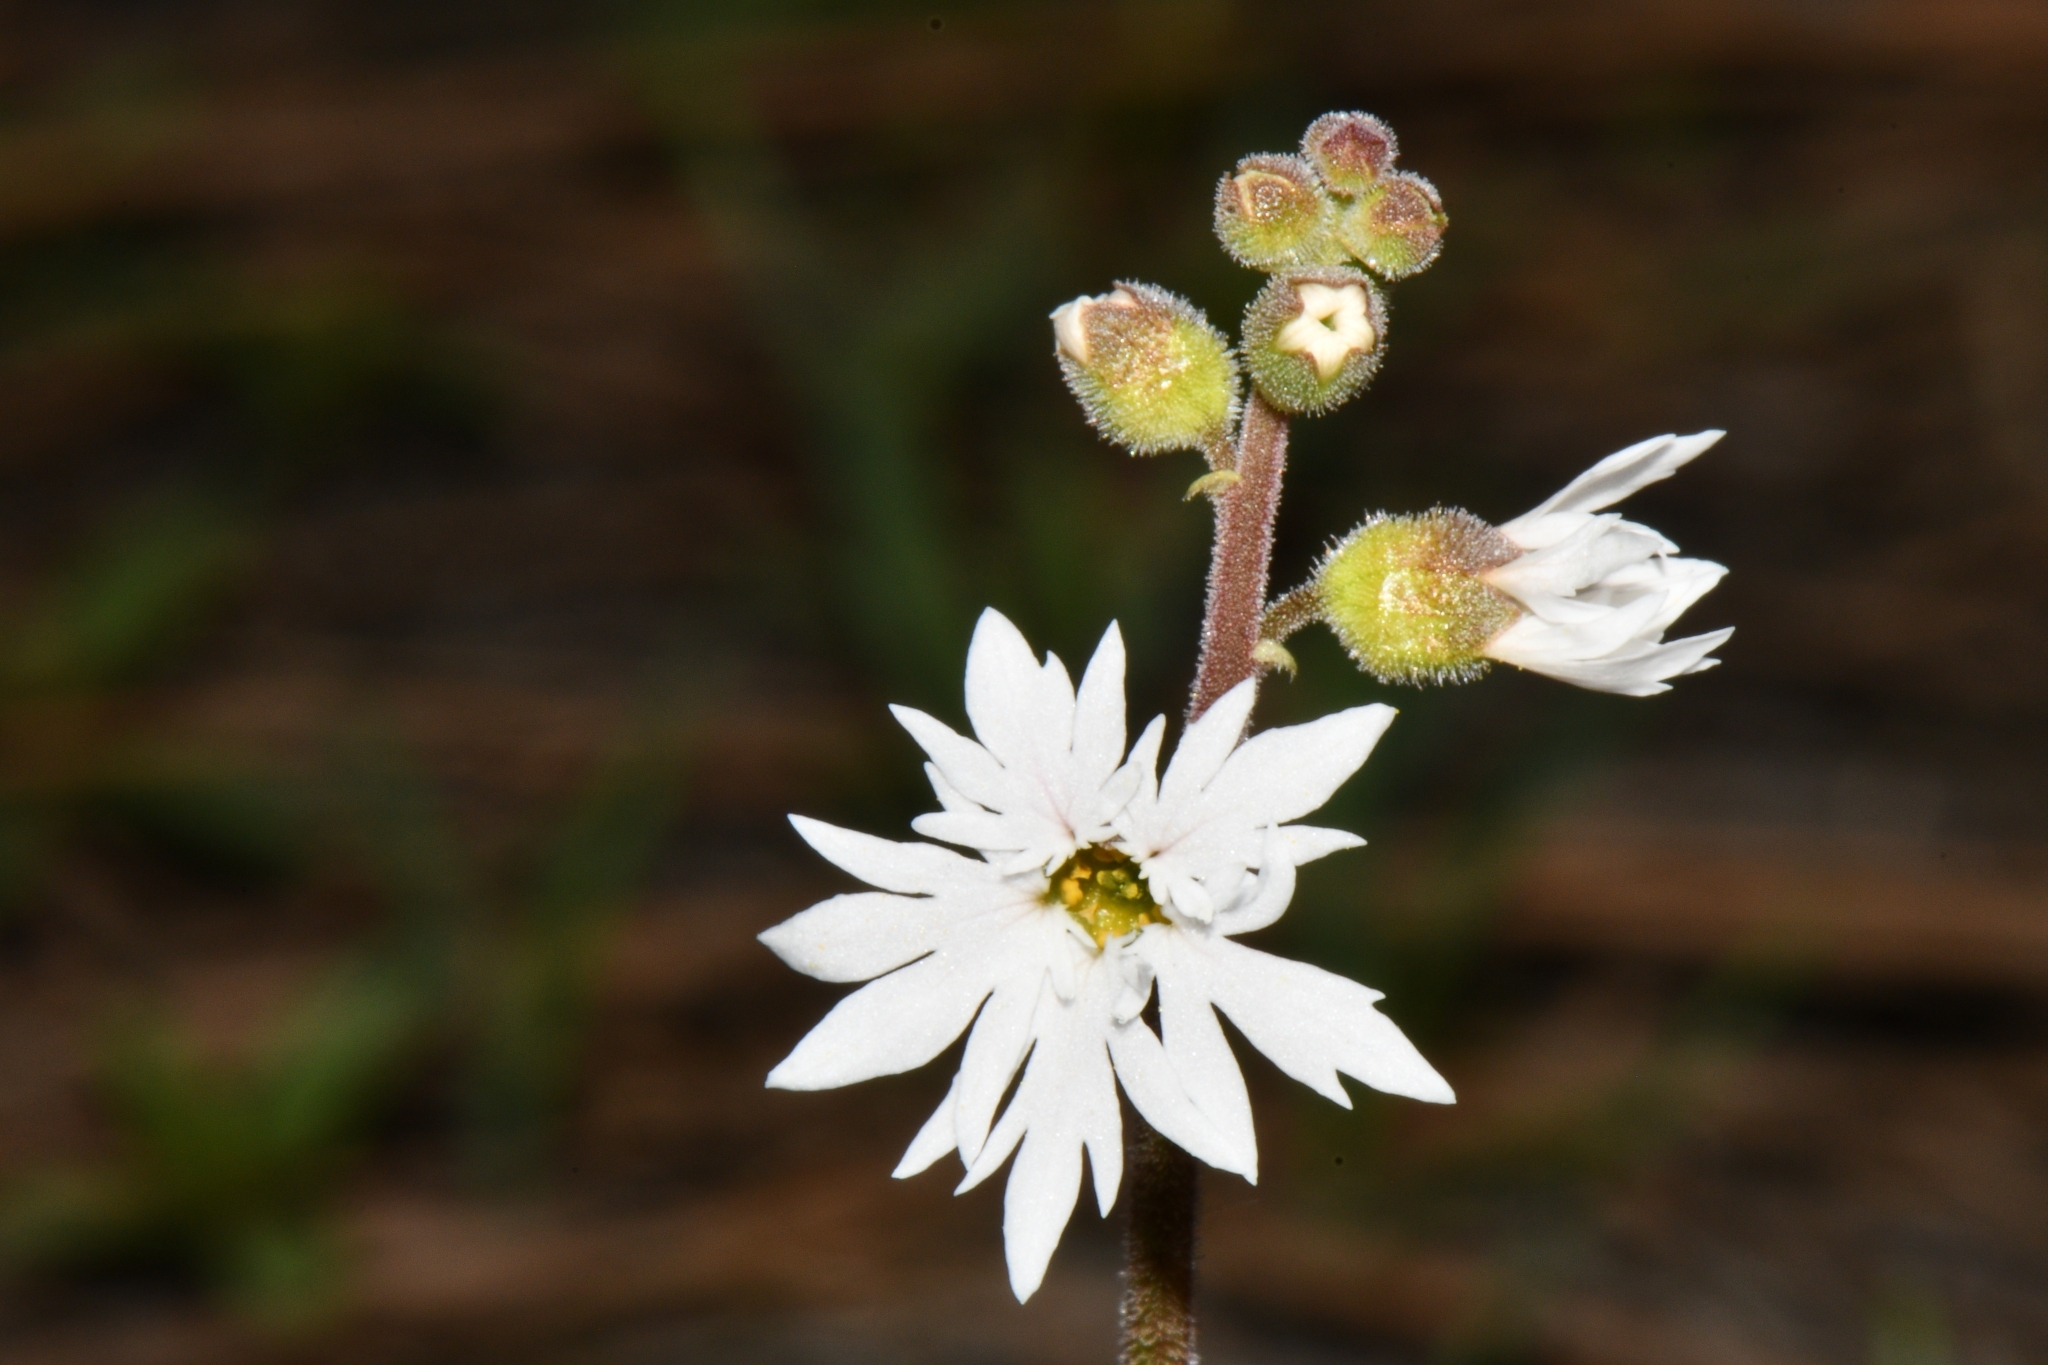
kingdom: Plantae
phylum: Tracheophyta
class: Magnoliopsida
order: Saxifragales
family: Saxifragaceae
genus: Lithophragma
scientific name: Lithophragma tenella
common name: Slender fringe-cup
